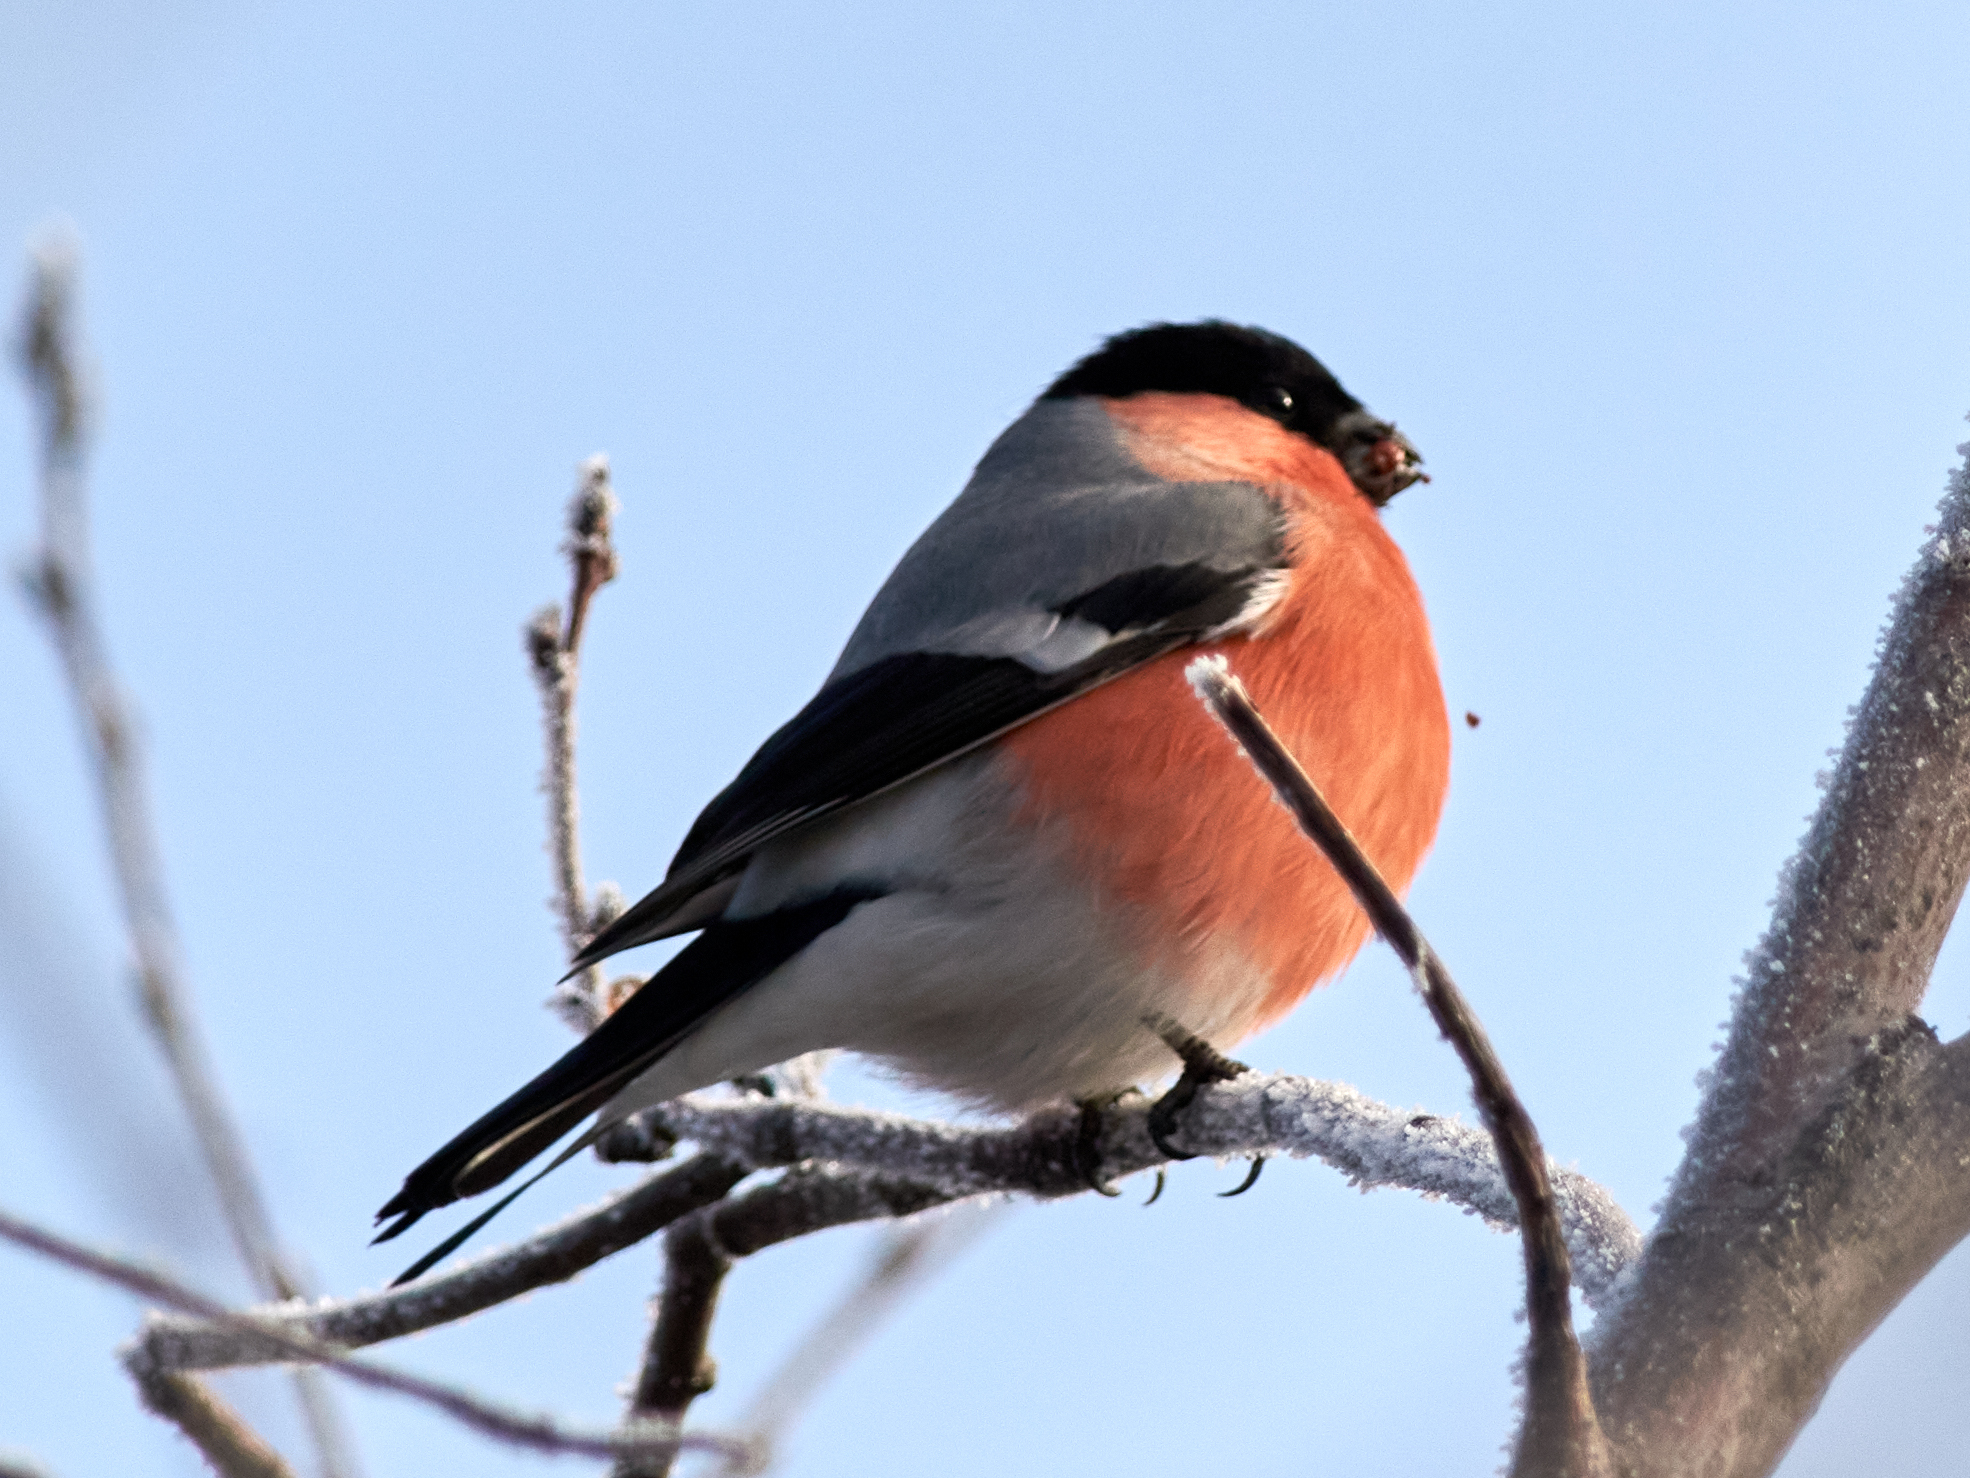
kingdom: Animalia
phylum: Chordata
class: Aves
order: Passeriformes
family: Fringillidae
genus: Pyrrhula
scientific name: Pyrrhula pyrrhula
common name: Eurasian bullfinch
